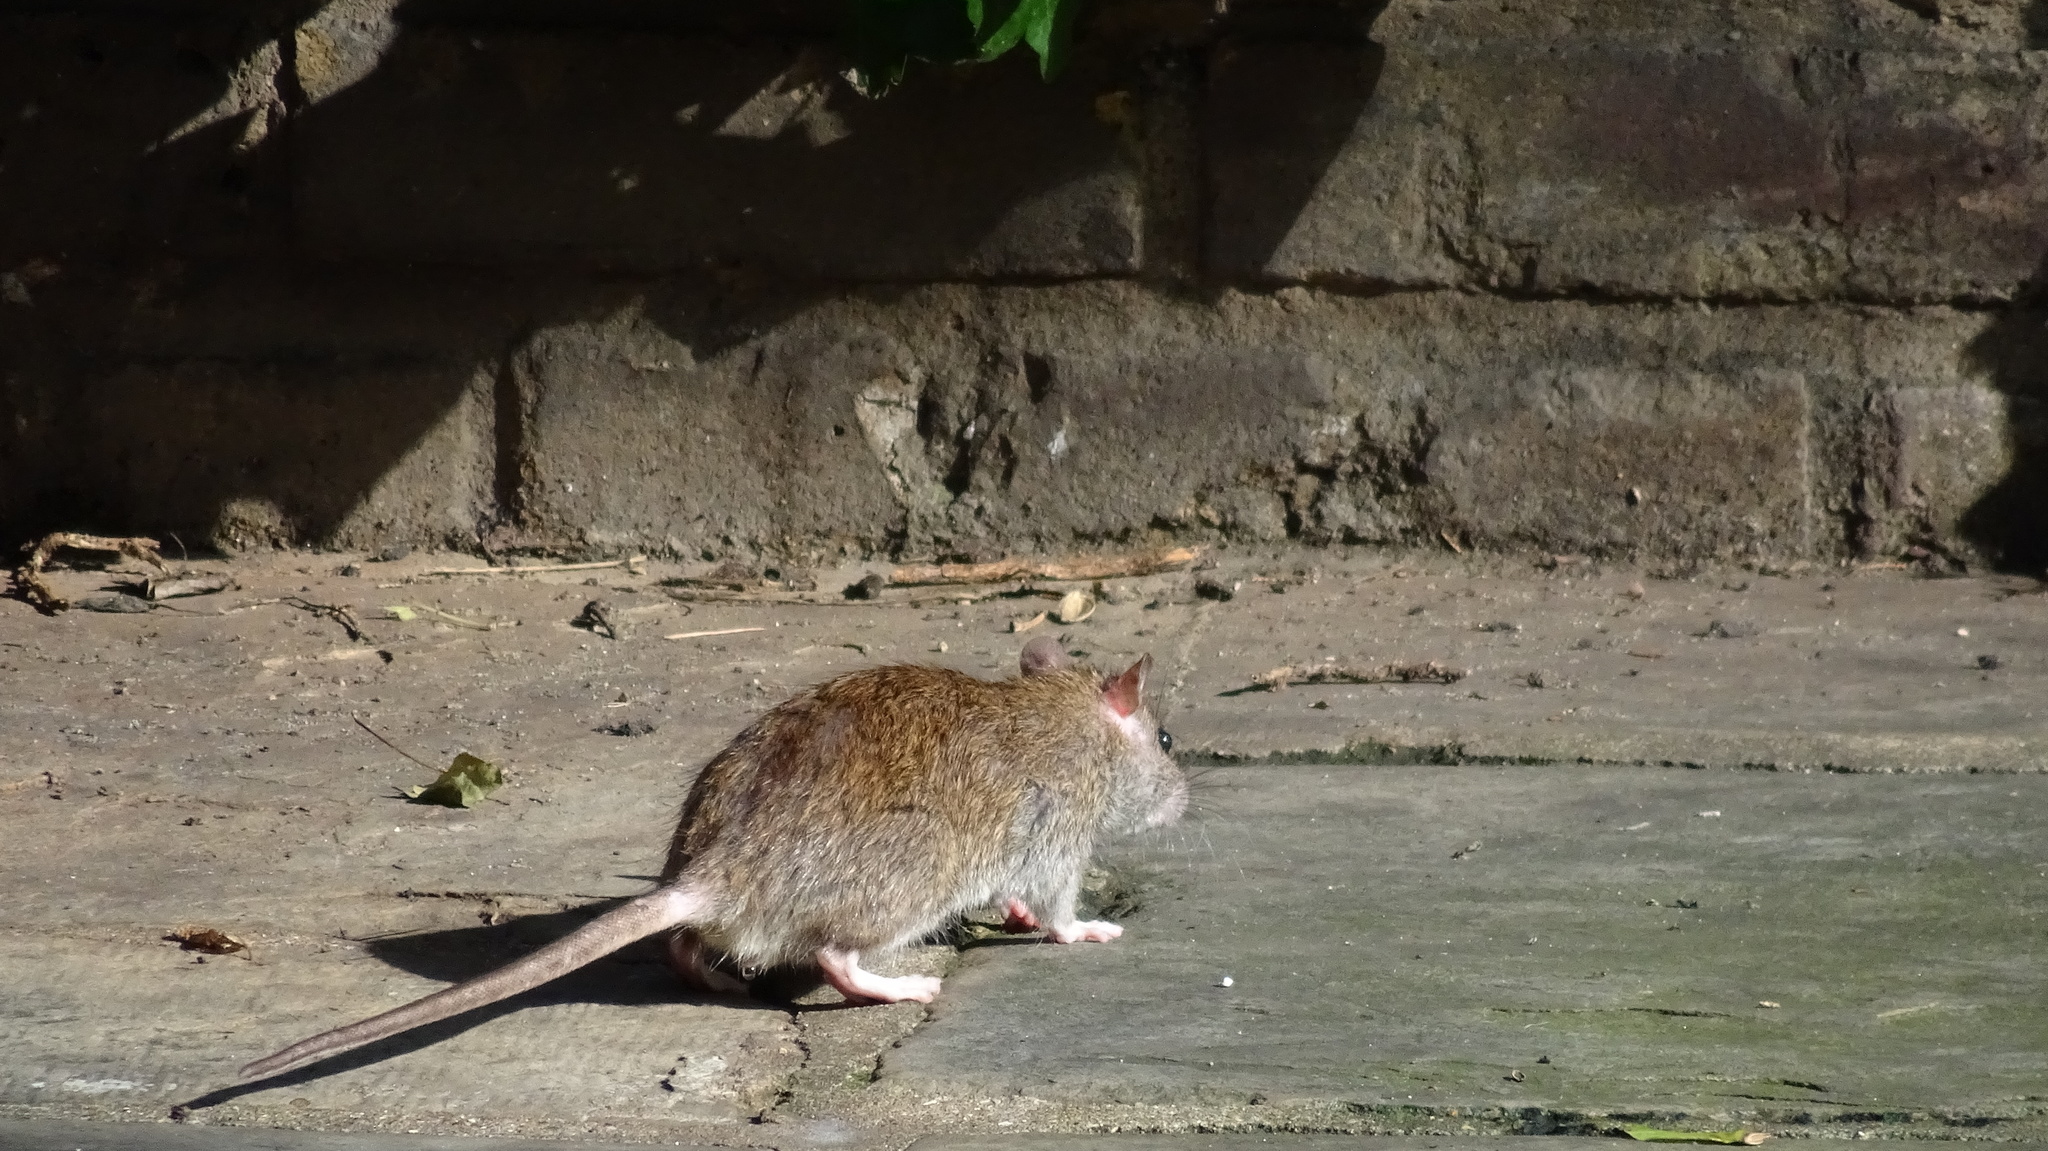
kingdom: Animalia
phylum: Chordata
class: Mammalia
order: Rodentia
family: Muridae
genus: Rattus
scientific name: Rattus norvegicus
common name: Brown rat
